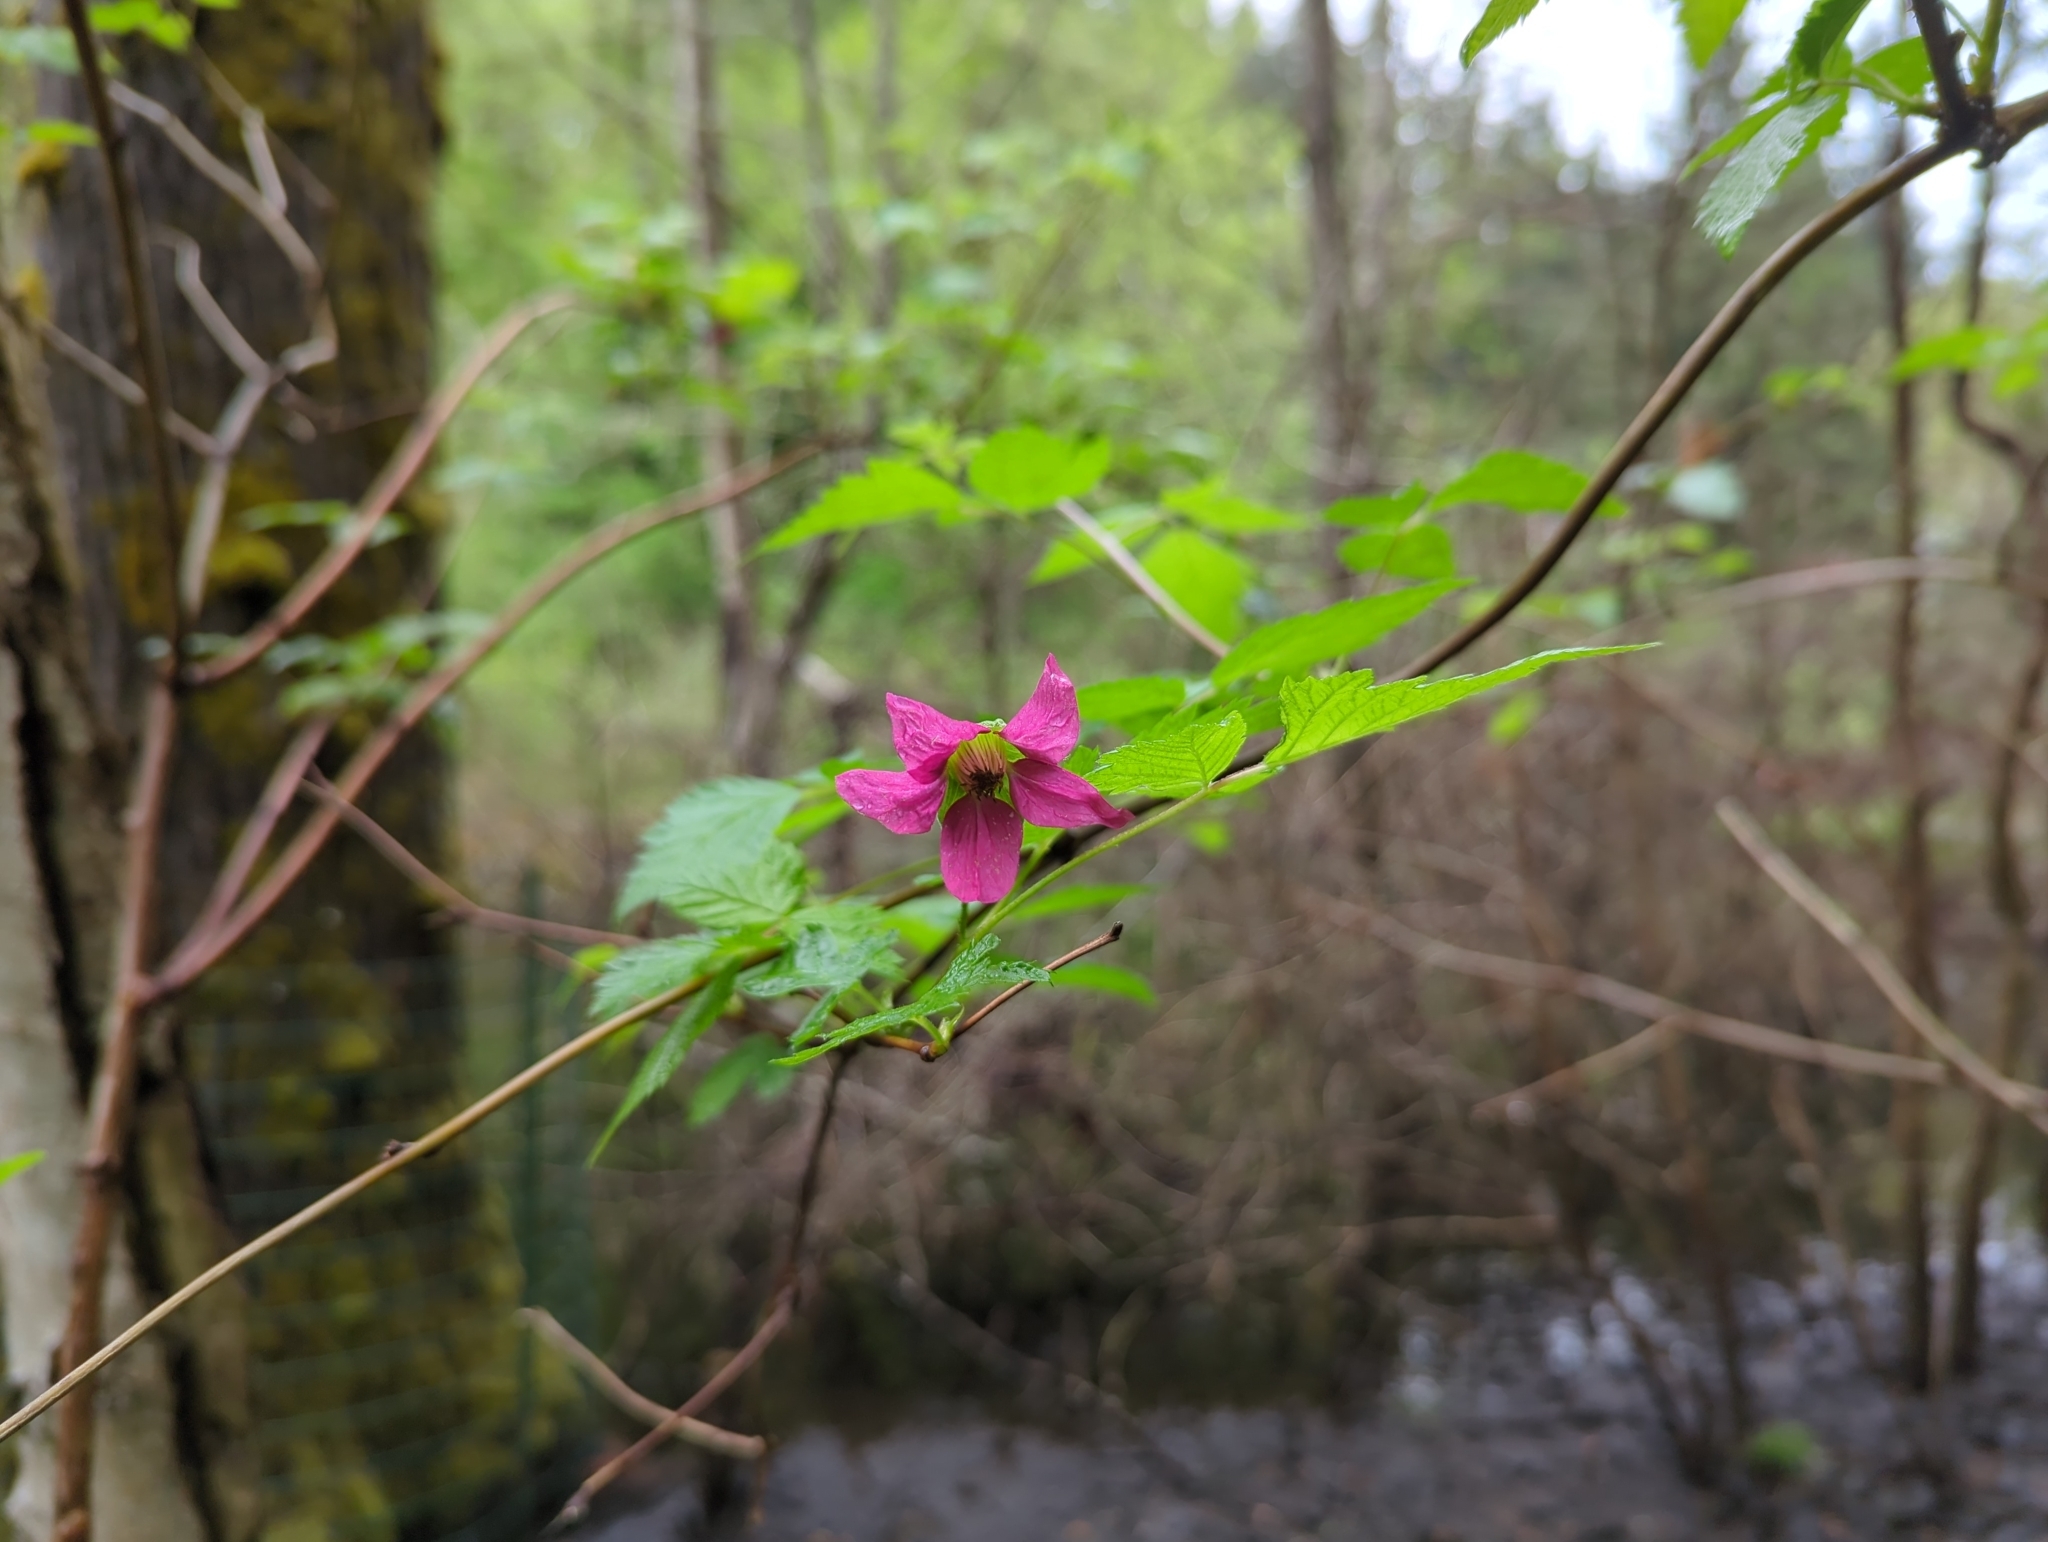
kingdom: Plantae
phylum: Tracheophyta
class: Magnoliopsida
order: Rosales
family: Rosaceae
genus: Rubus
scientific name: Rubus spectabilis
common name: Salmonberry
